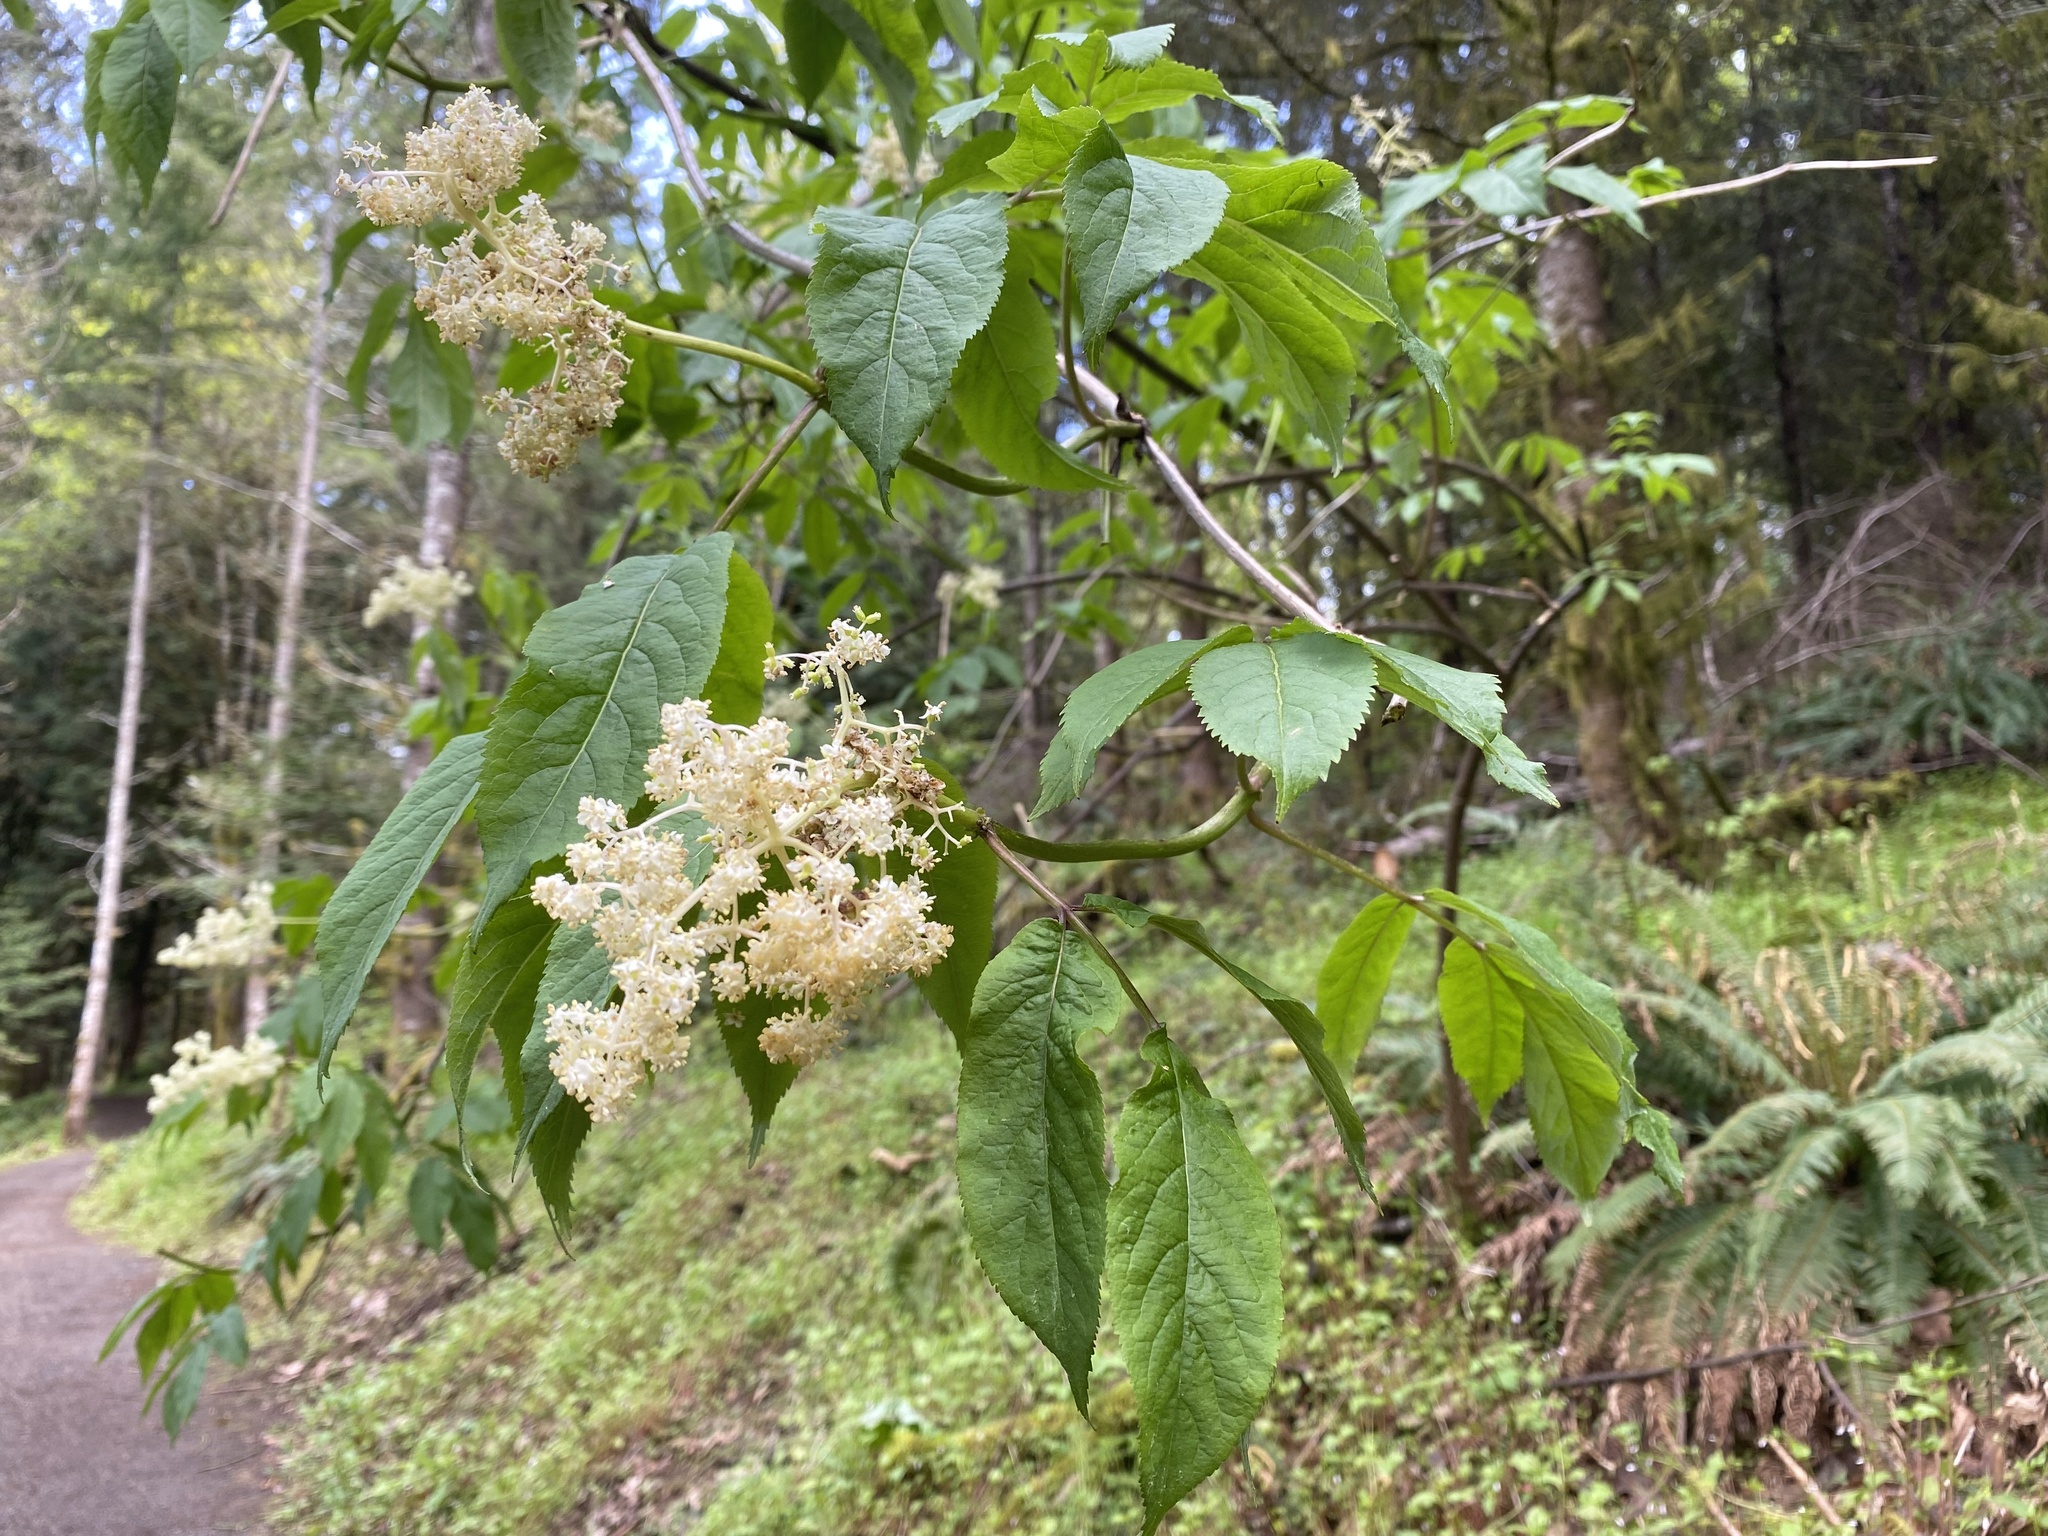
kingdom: Plantae
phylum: Tracheophyta
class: Magnoliopsida
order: Dipsacales
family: Viburnaceae
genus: Sambucus
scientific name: Sambucus racemosa
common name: Red-berried elder
